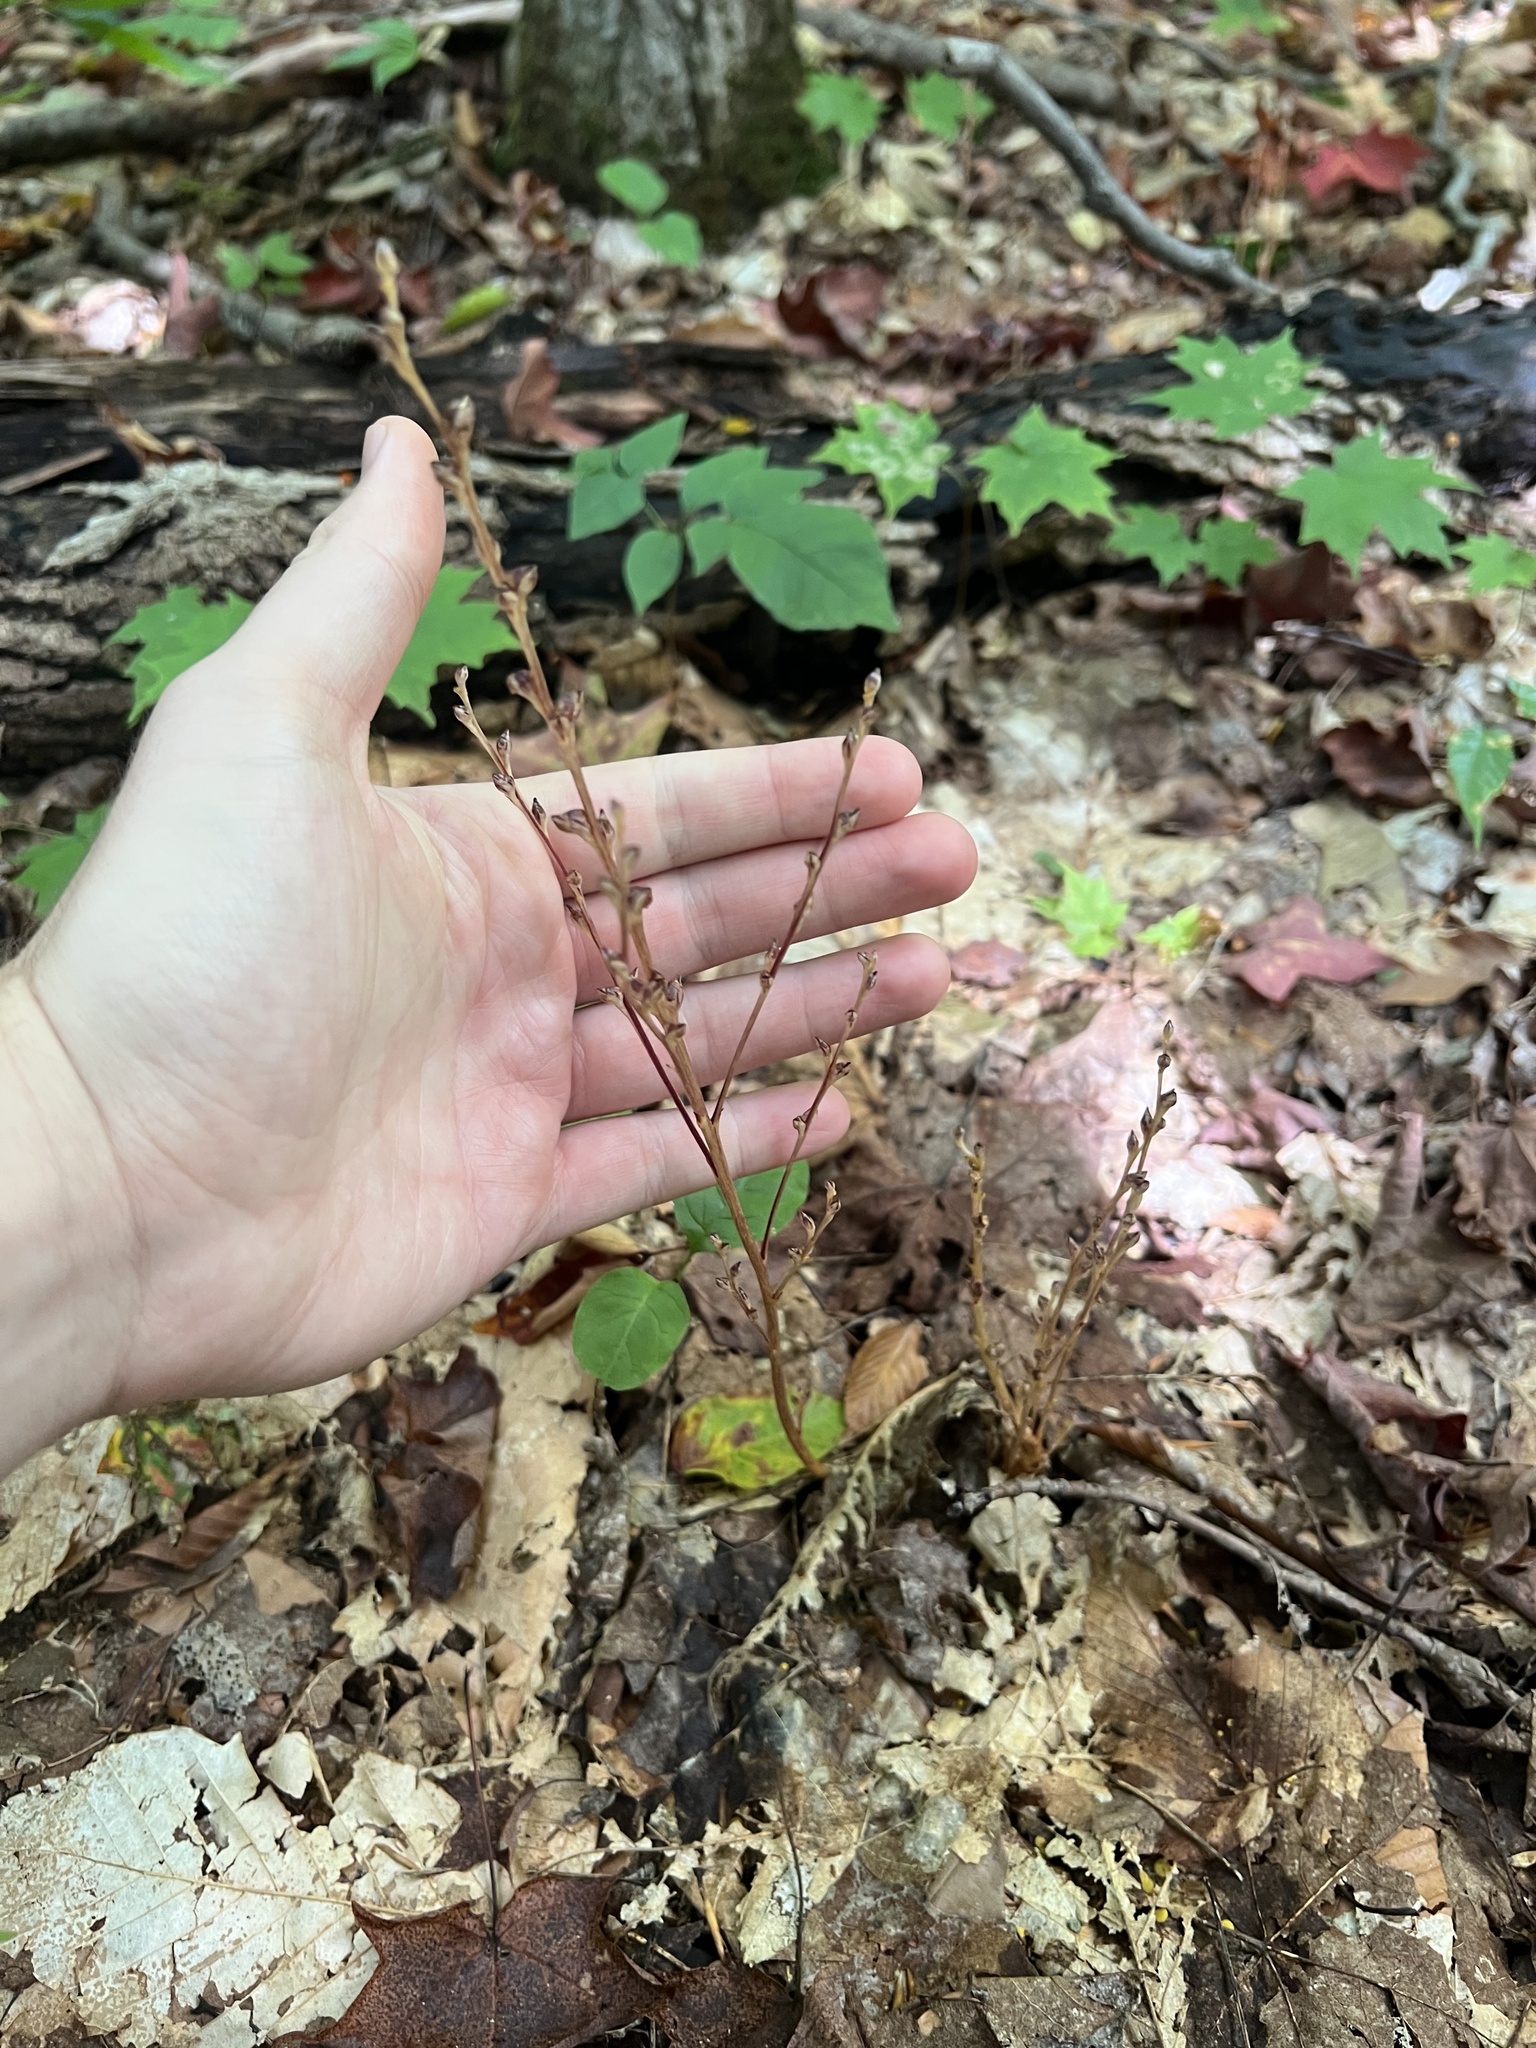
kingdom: Plantae
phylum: Tracheophyta
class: Magnoliopsida
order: Lamiales
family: Orobanchaceae
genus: Epifagus
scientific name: Epifagus virginiana
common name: Beechdrops
